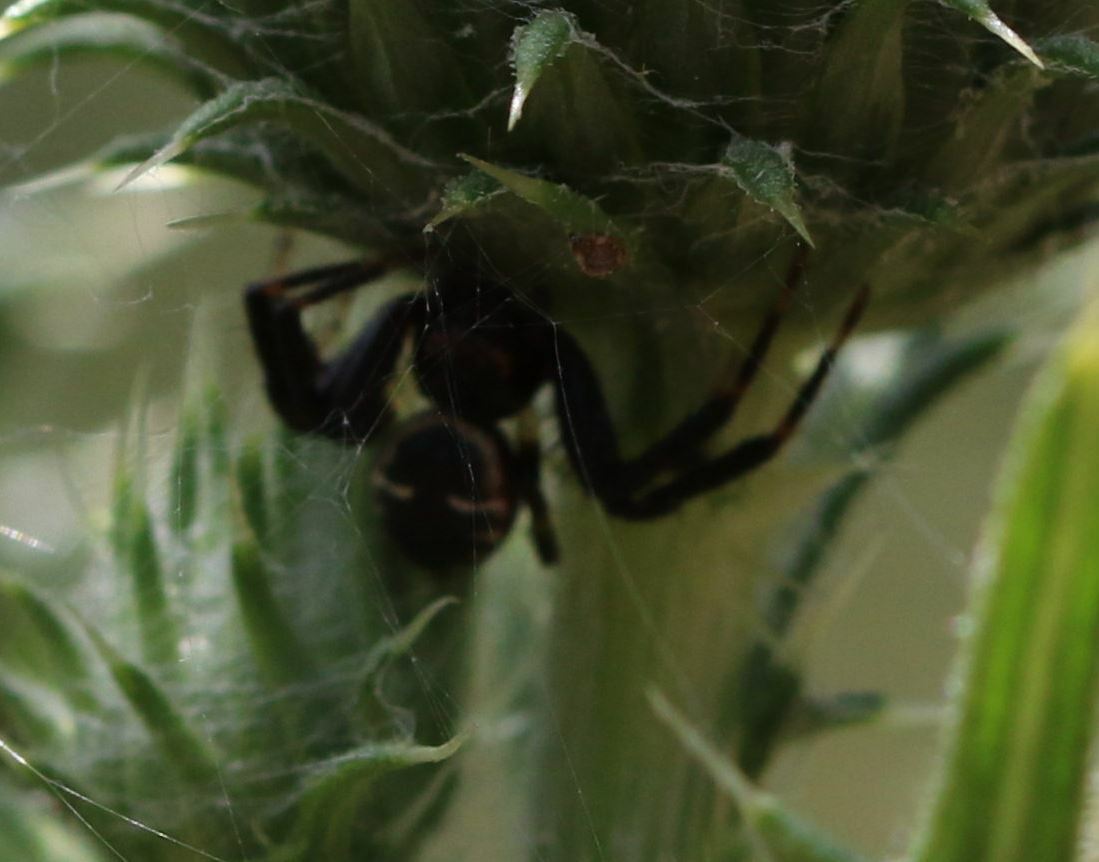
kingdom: Animalia
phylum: Arthropoda
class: Arachnida
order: Araneae
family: Thomisidae
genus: Synema
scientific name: Synema globosum
